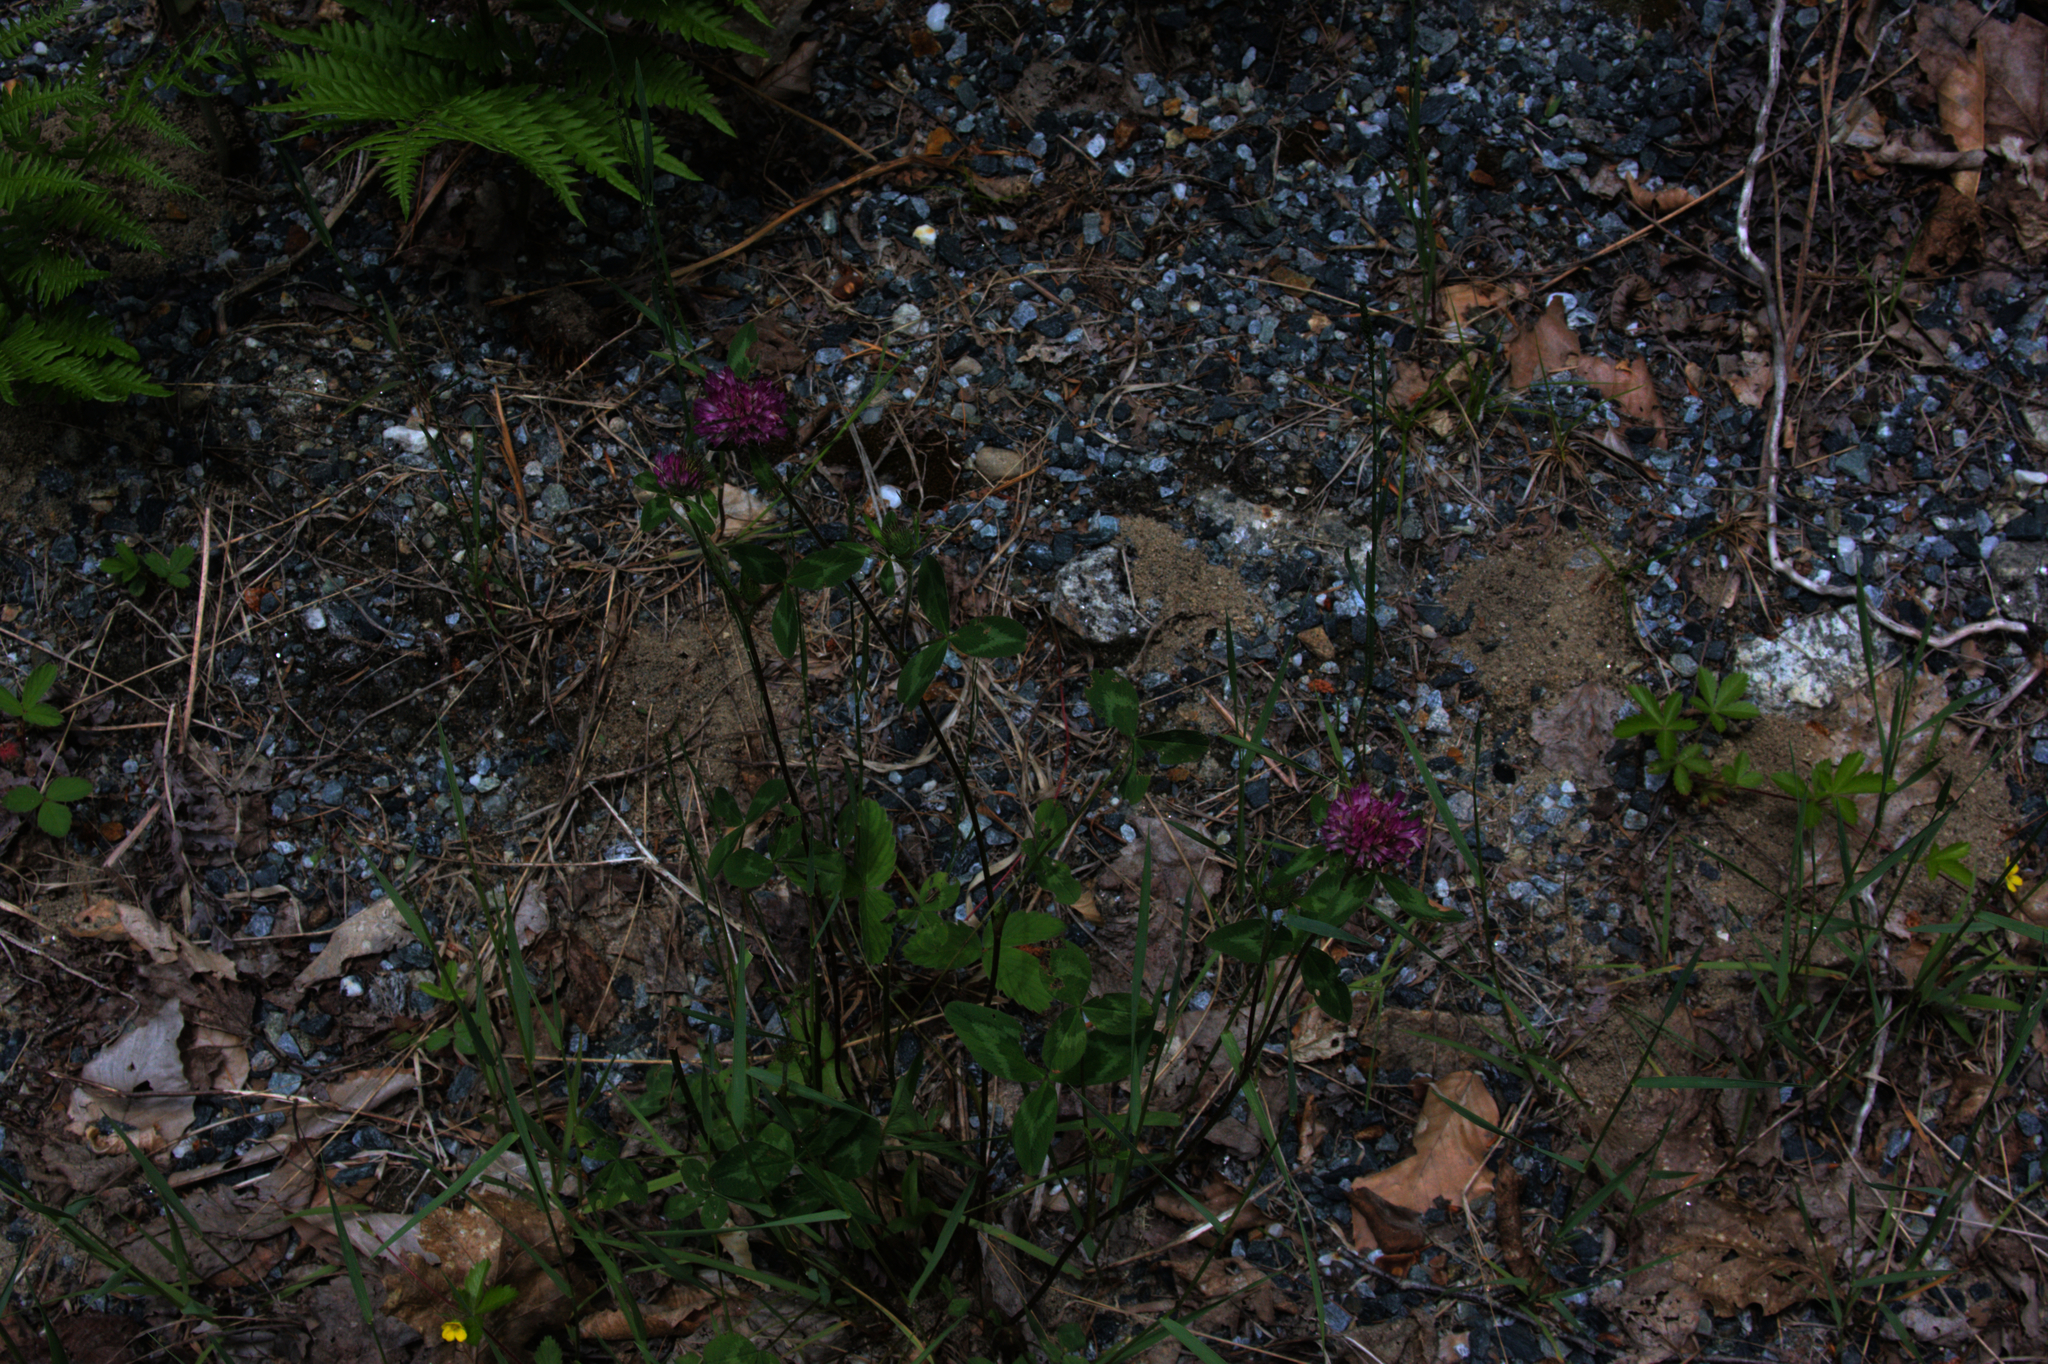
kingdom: Plantae
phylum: Tracheophyta
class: Magnoliopsida
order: Fabales
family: Fabaceae
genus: Trifolium
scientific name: Trifolium pratense
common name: Red clover
